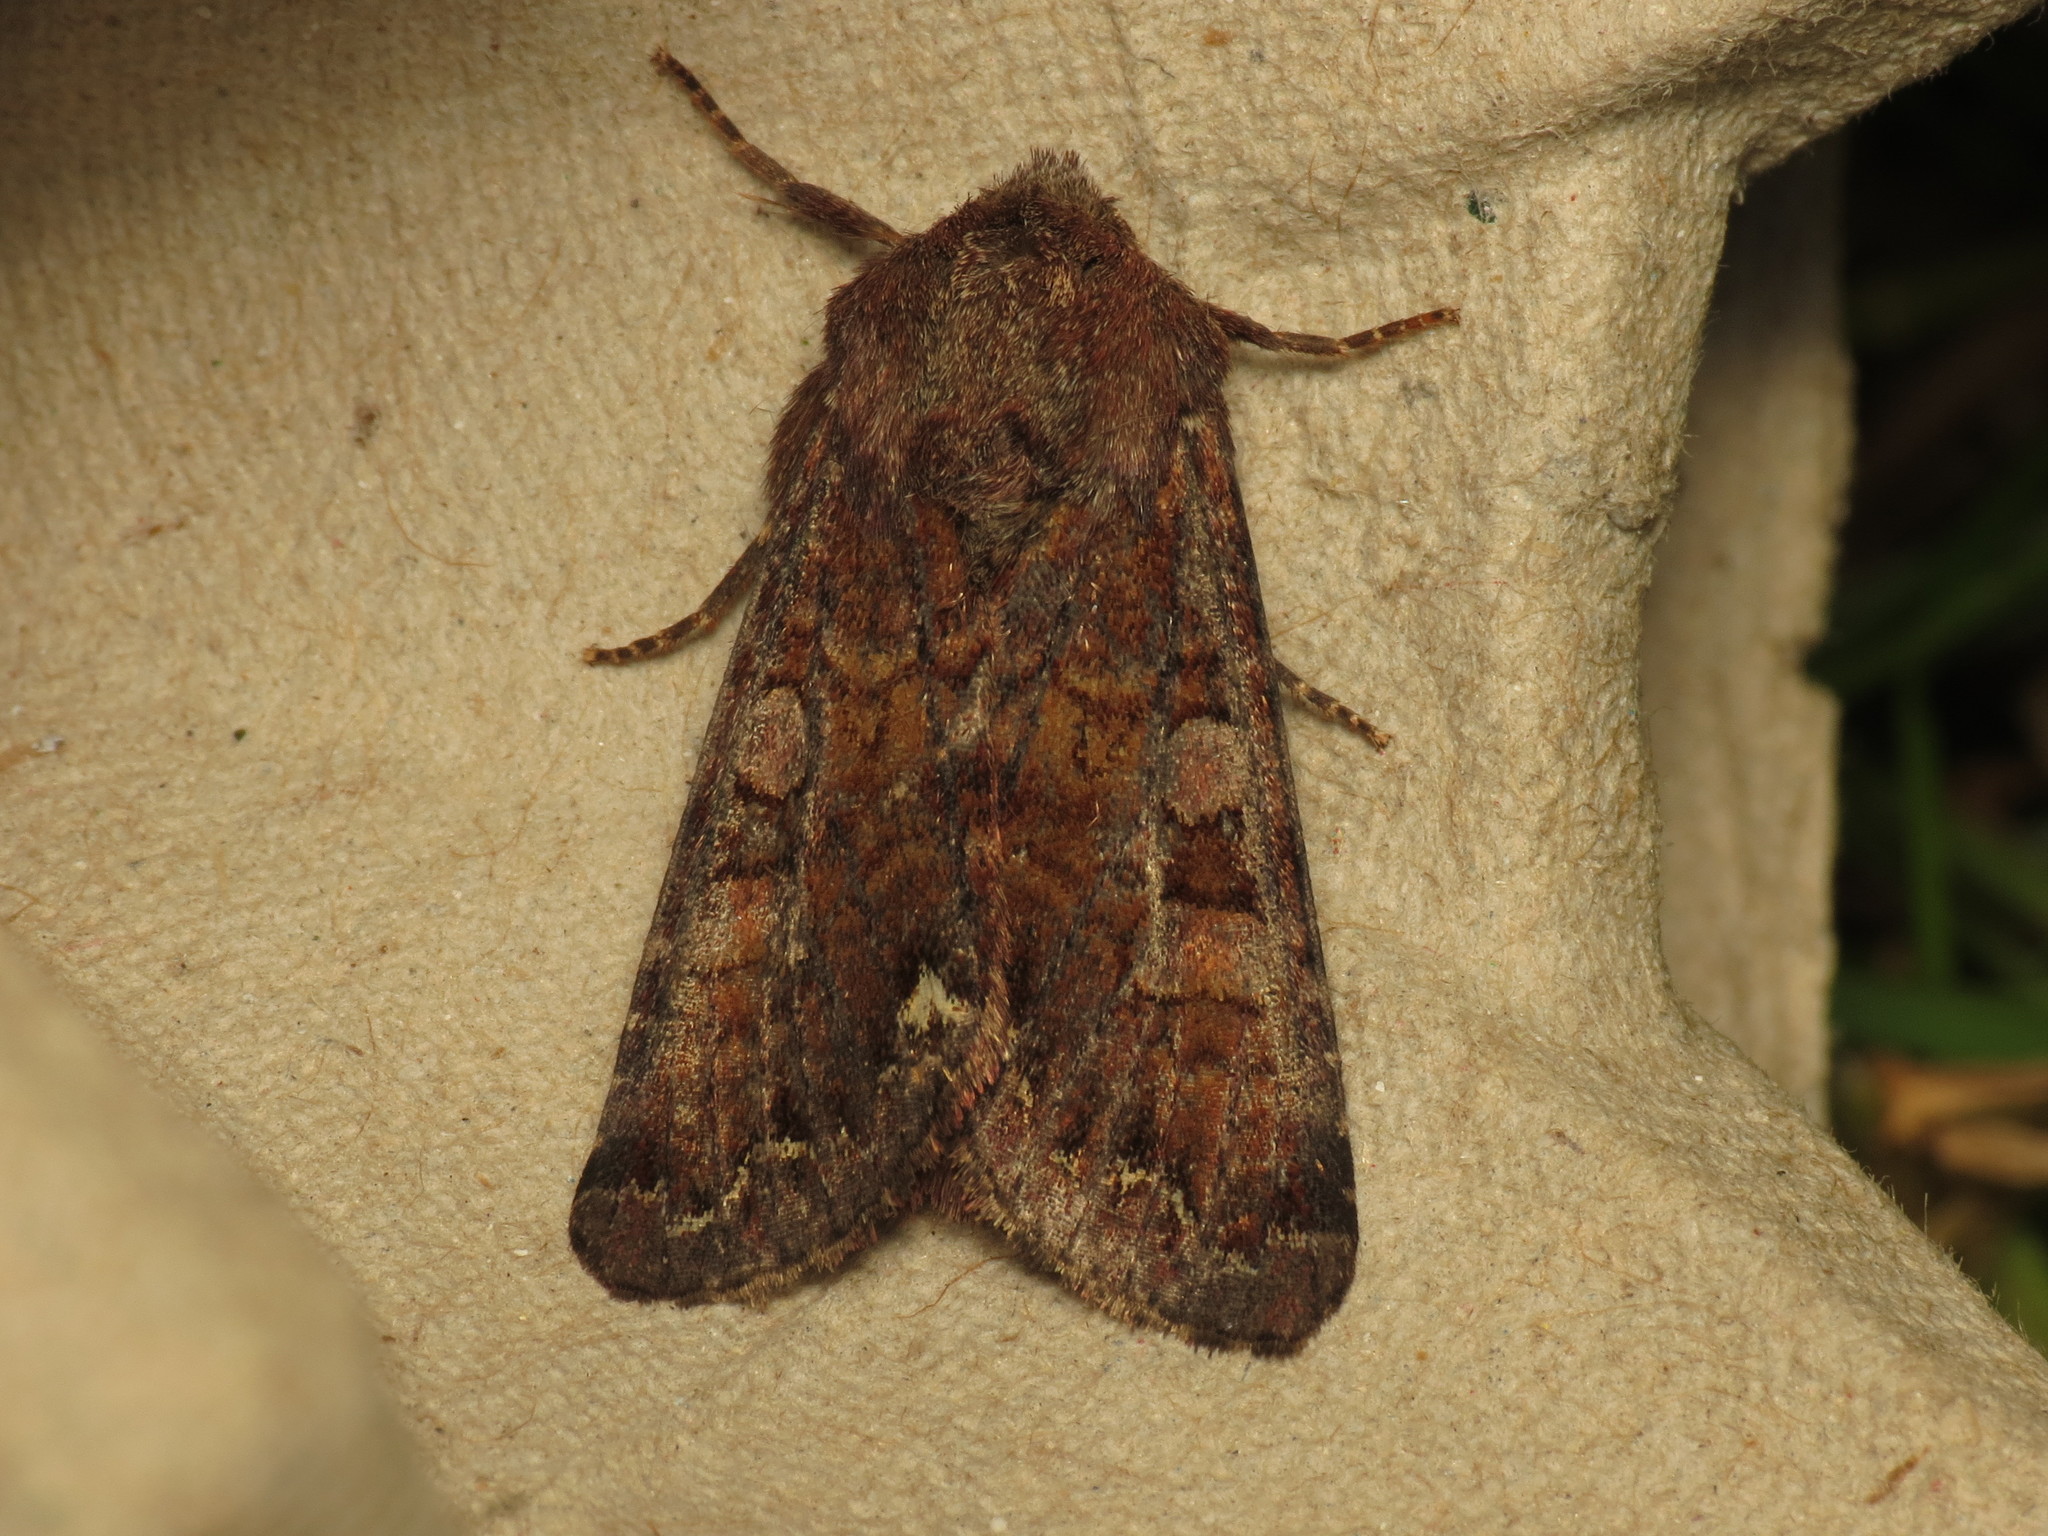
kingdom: Animalia
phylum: Arthropoda
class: Insecta
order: Lepidoptera
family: Noctuidae
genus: Ceramica
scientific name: Ceramica pisi
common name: Broom moth
